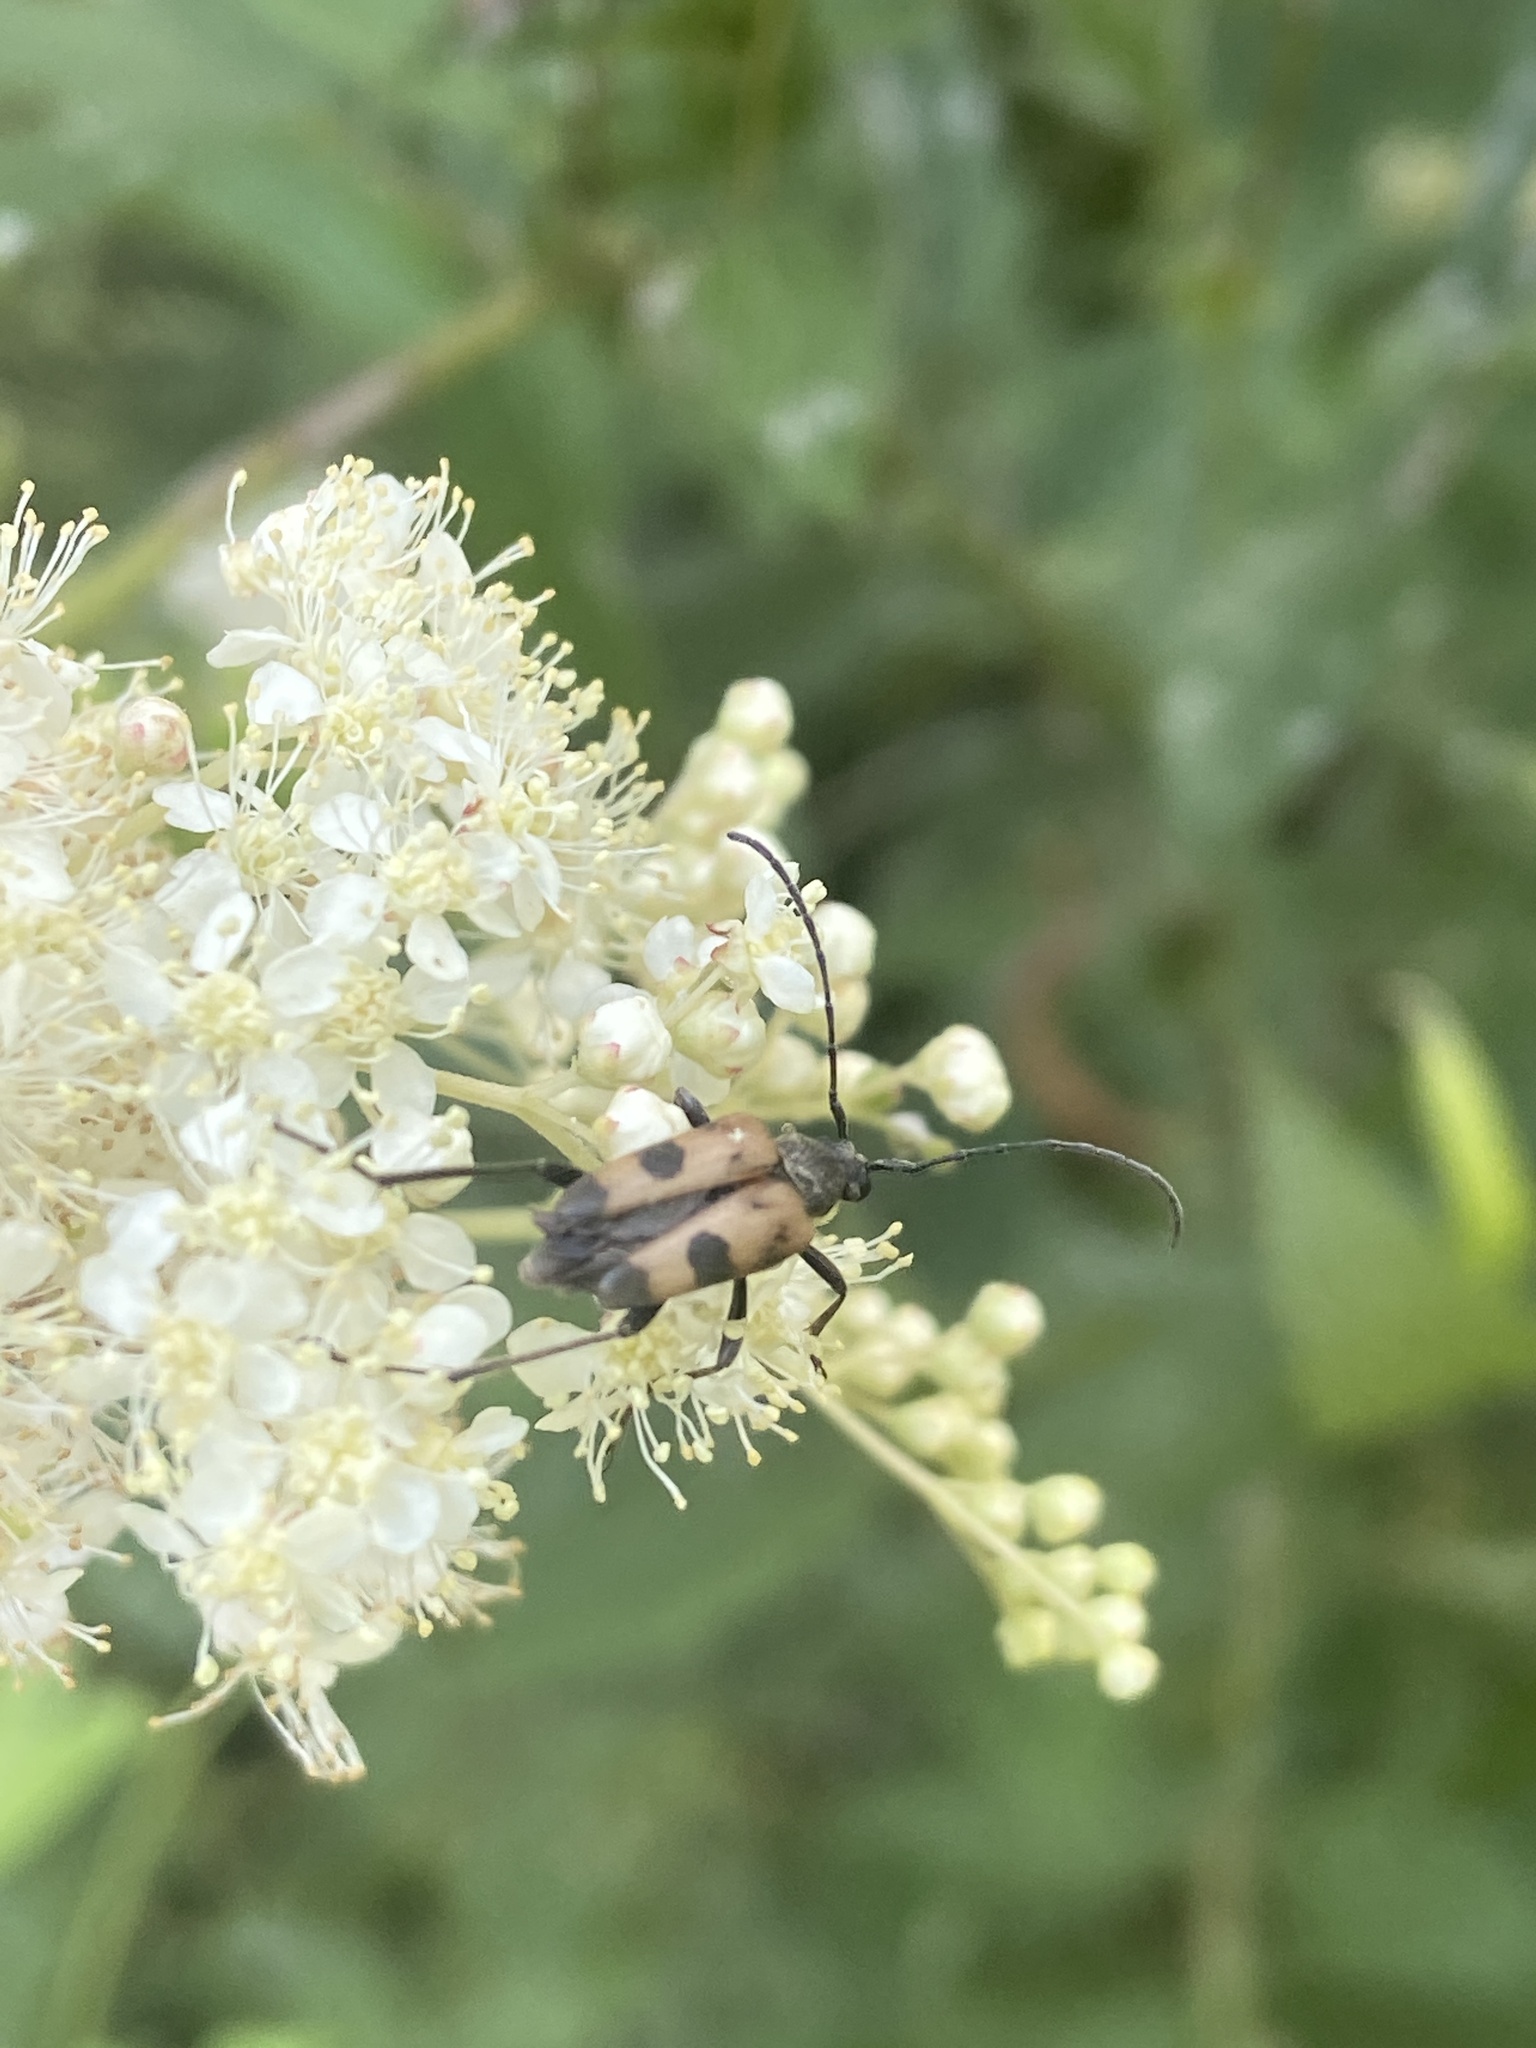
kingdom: Animalia
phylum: Arthropoda
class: Insecta
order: Coleoptera
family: Cerambycidae
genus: Pachytodes
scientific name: Pachytodes cerambyciformis
